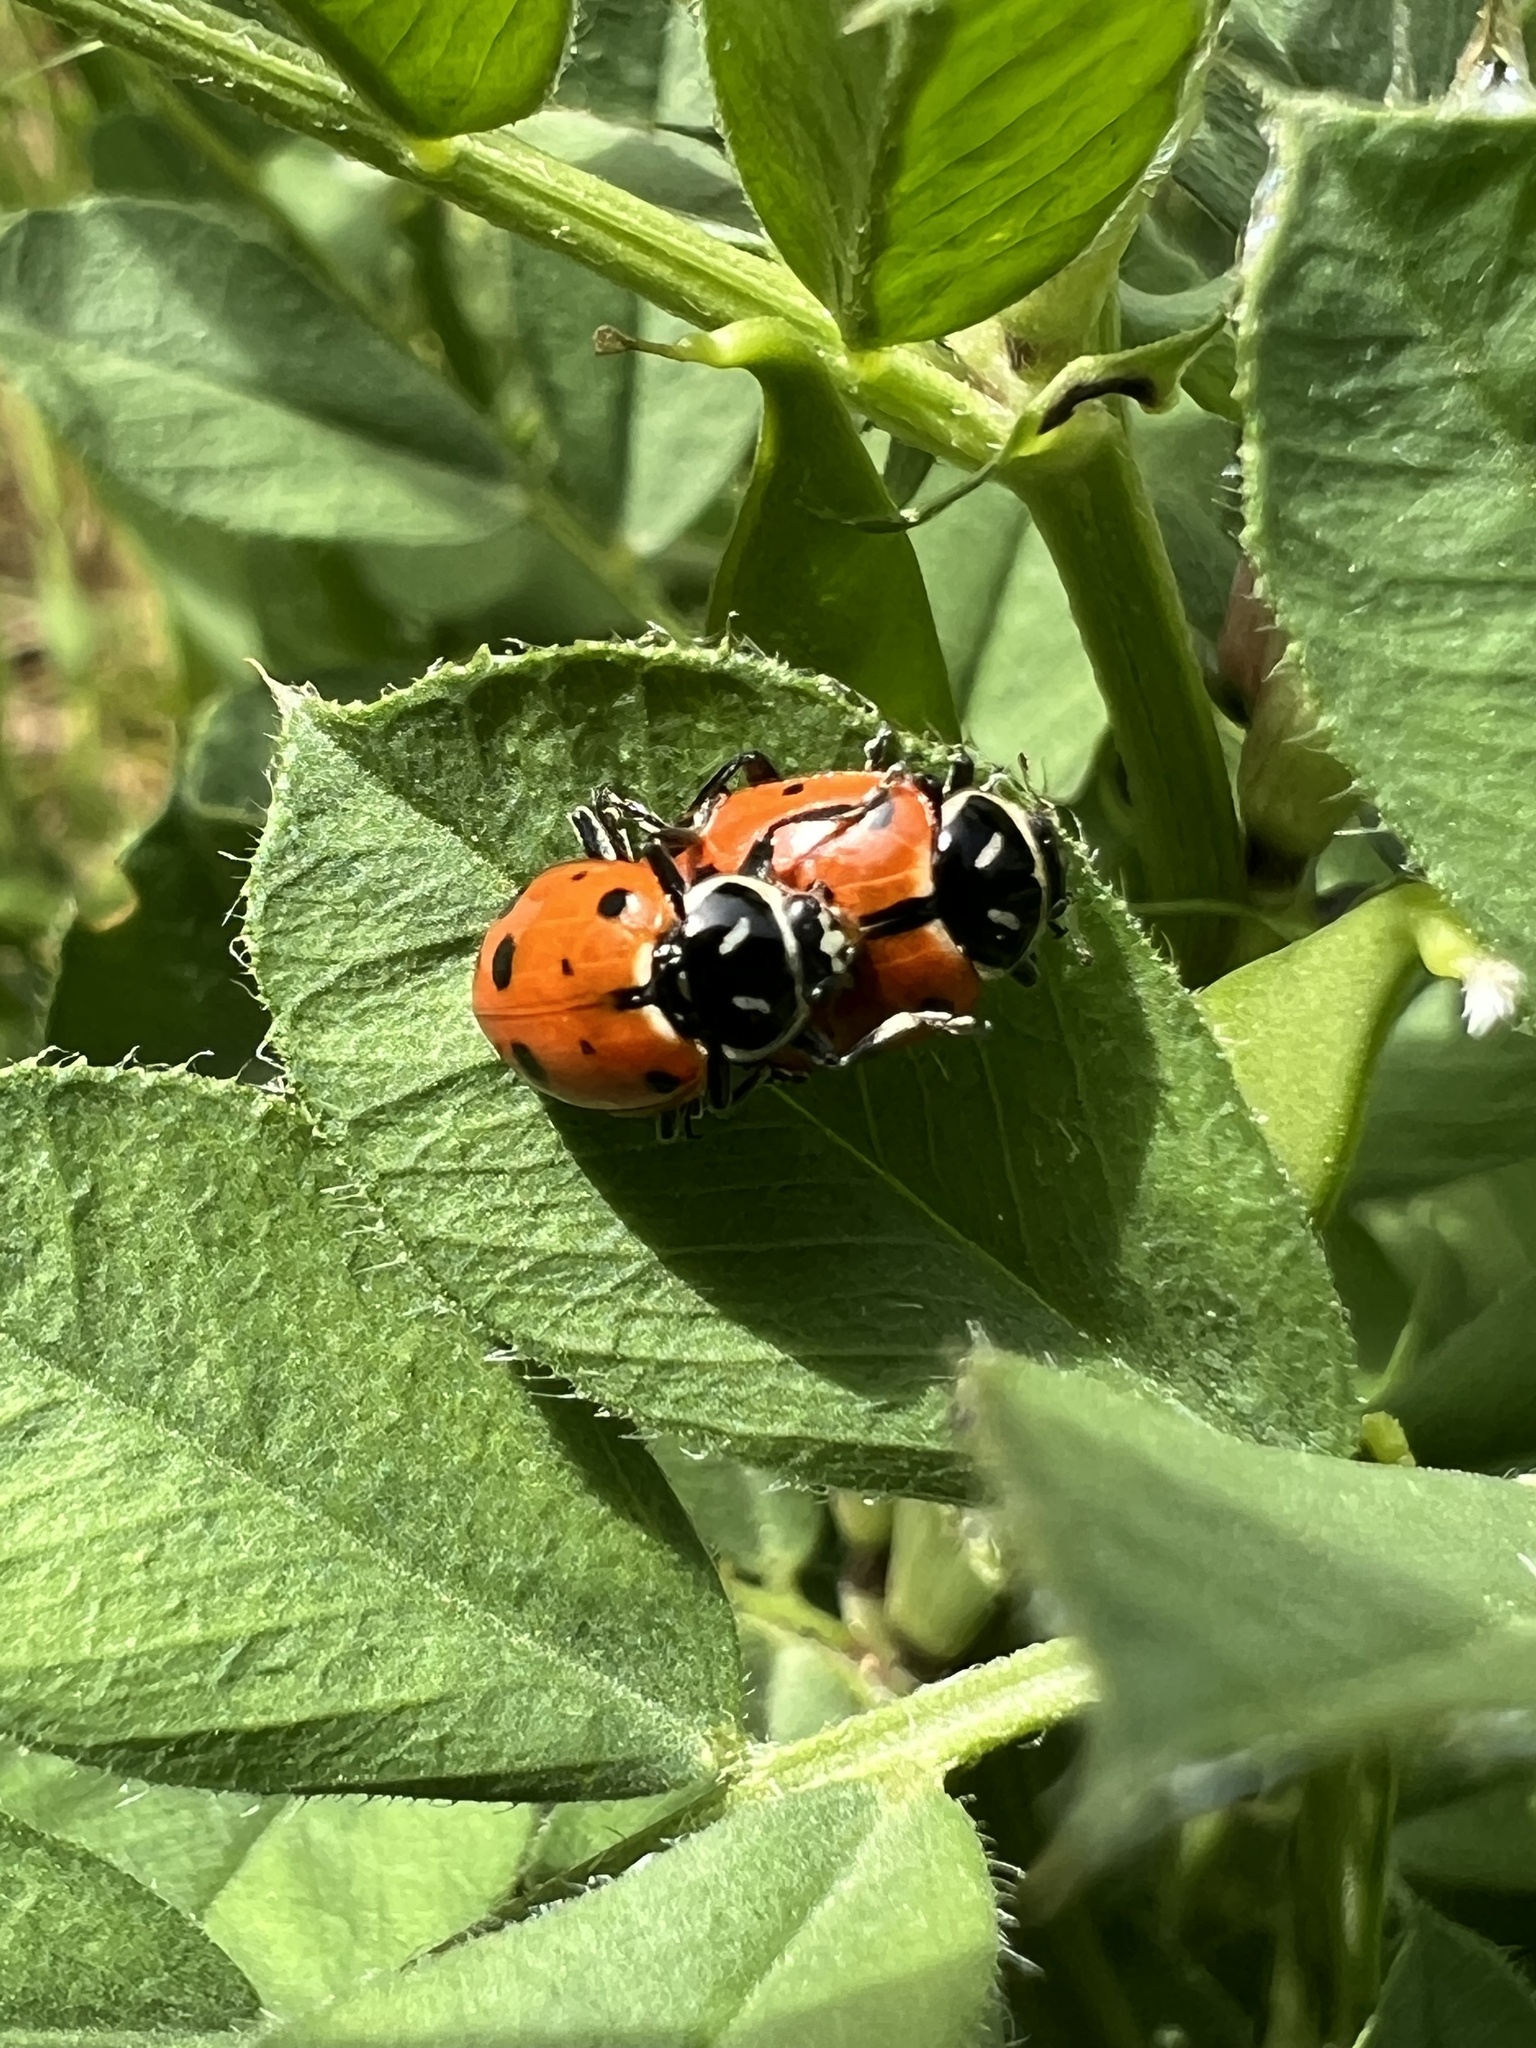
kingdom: Animalia
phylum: Arthropoda
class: Insecta
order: Coleoptera
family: Coccinellidae
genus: Hippodamia
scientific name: Hippodamia convergens
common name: Convergent lady beetle
